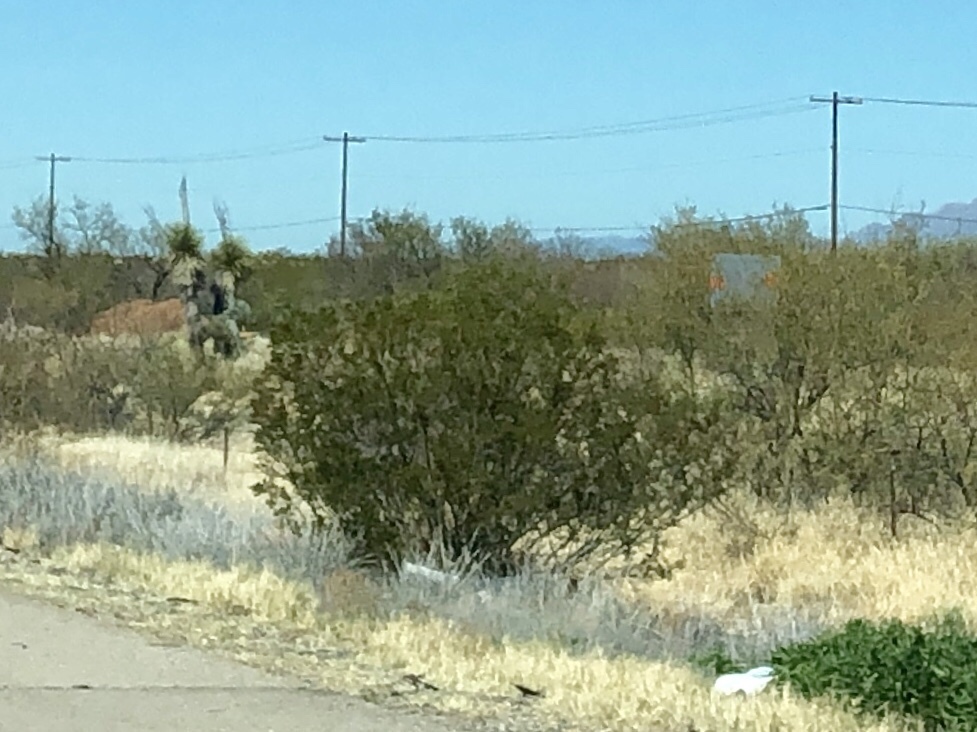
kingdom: Plantae
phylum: Tracheophyta
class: Magnoliopsida
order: Zygophyllales
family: Zygophyllaceae
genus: Larrea
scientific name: Larrea tridentata
